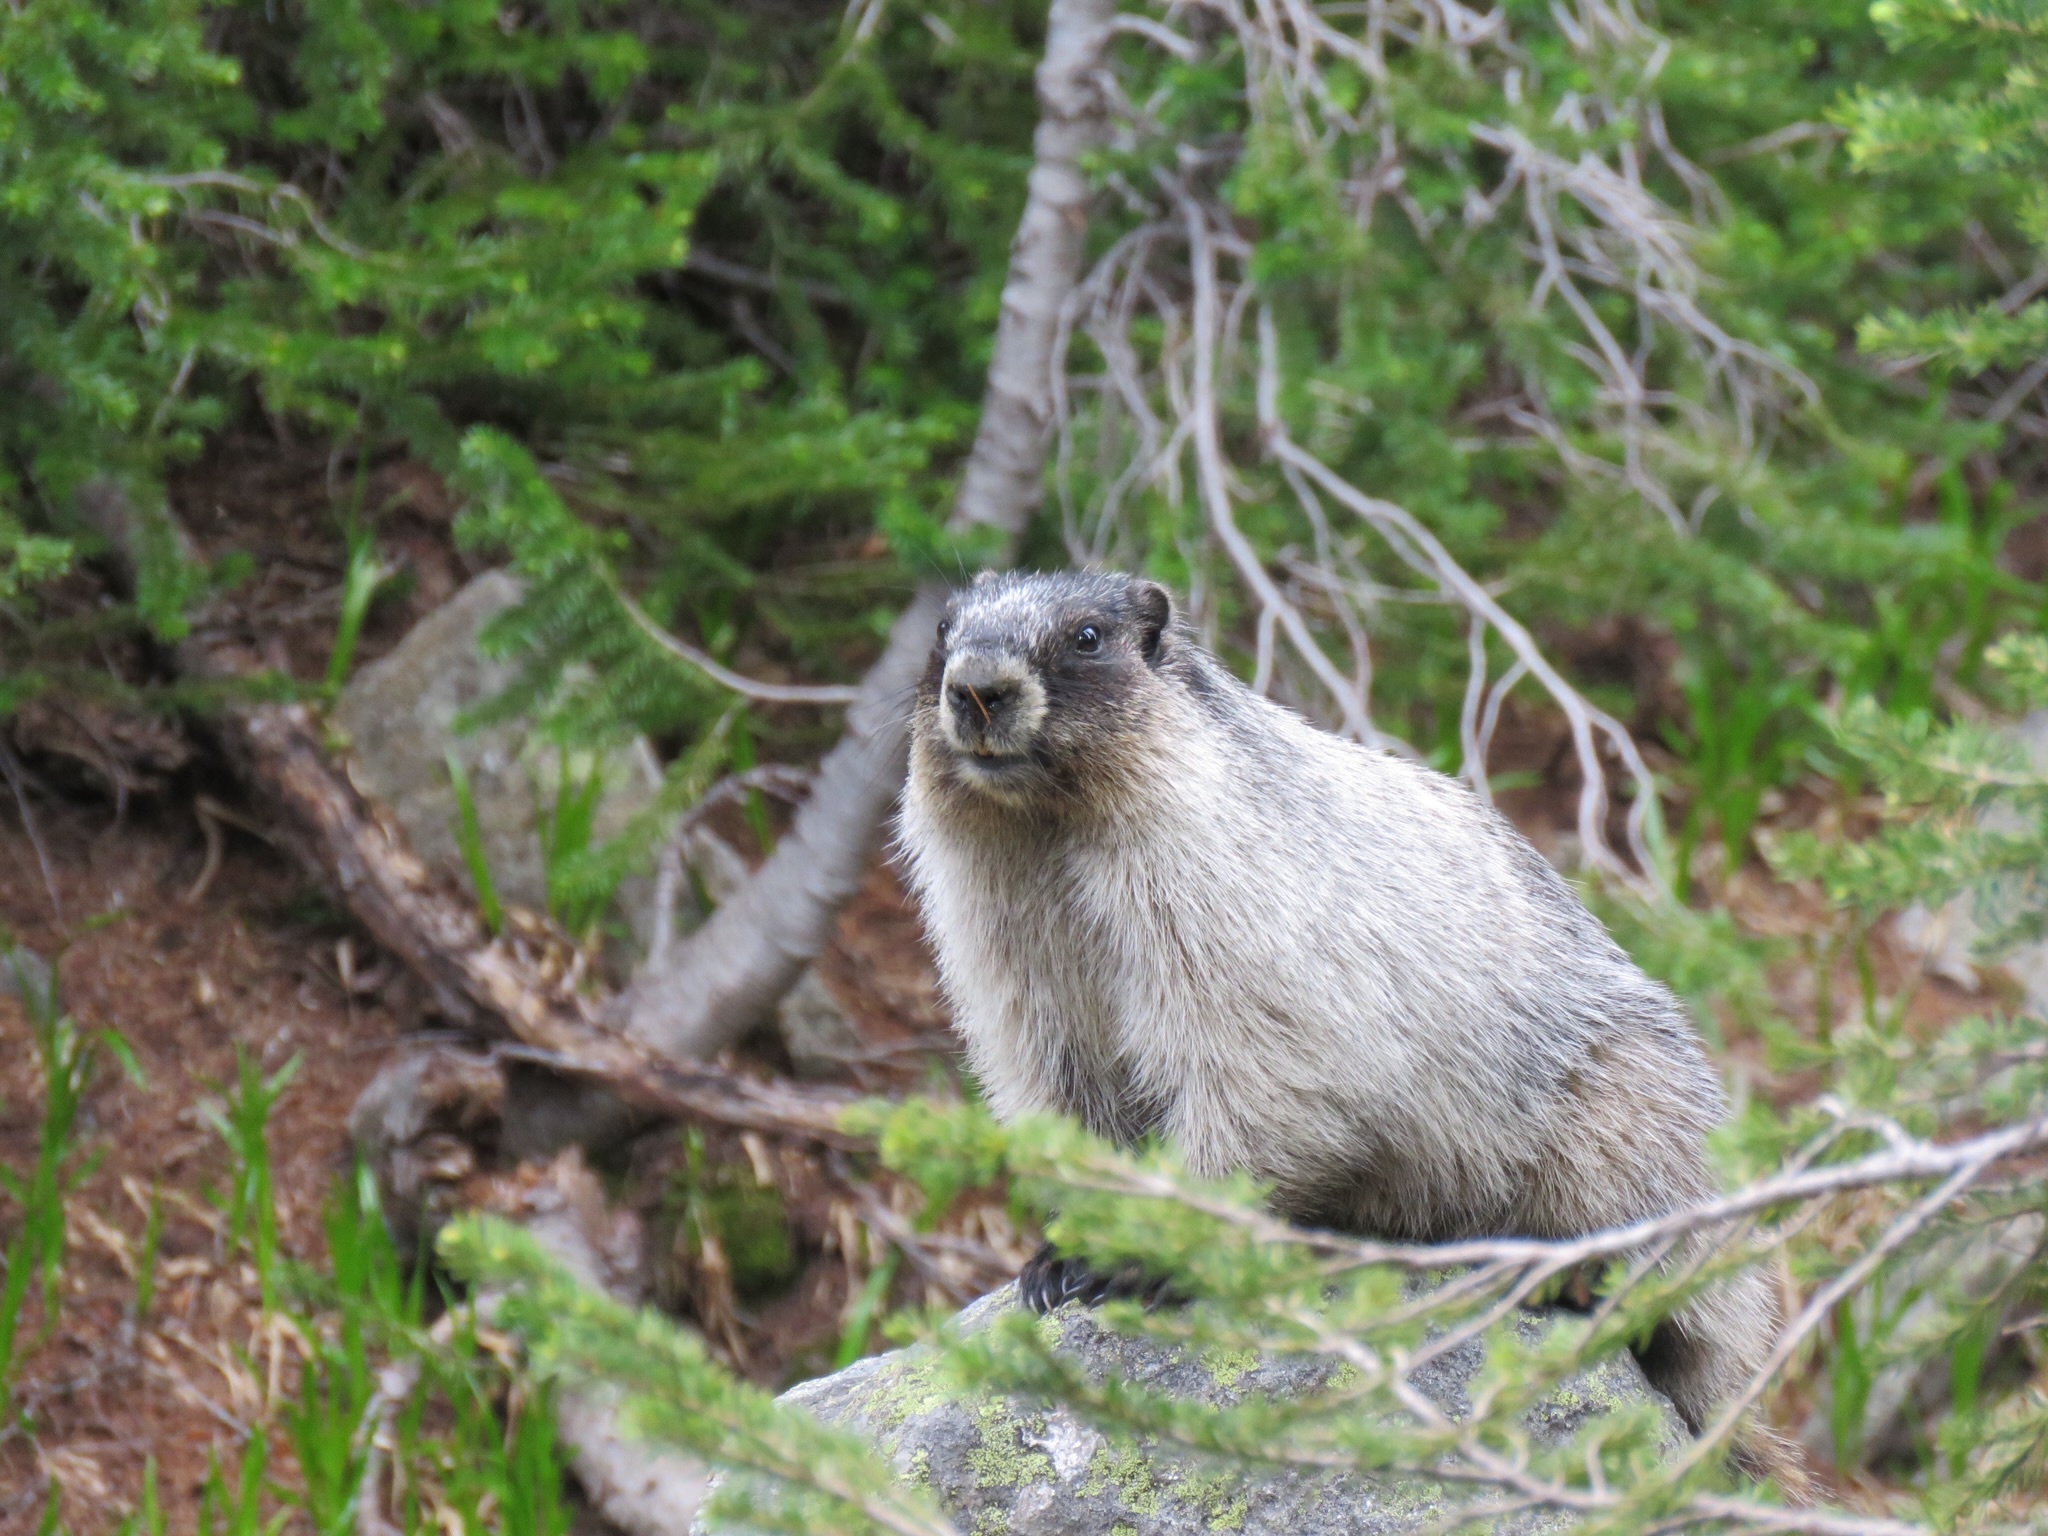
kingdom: Animalia
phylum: Chordata
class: Mammalia
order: Rodentia
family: Sciuridae
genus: Marmota
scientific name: Marmota caligata
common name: Hoary marmot
